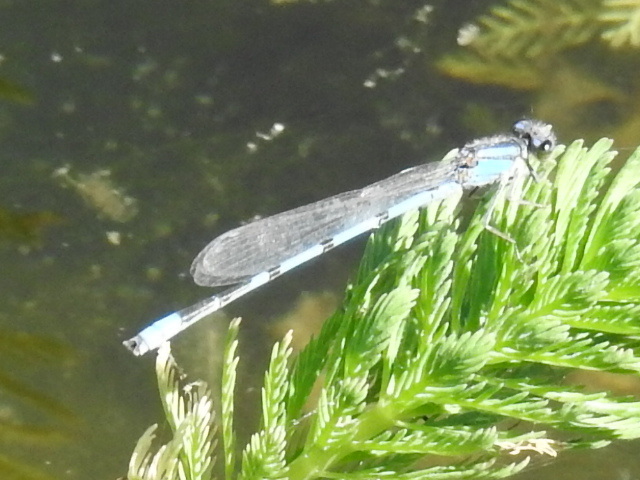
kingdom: Animalia
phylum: Arthropoda
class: Insecta
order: Odonata
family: Coenagrionidae
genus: Enallagma
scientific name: Enallagma civile
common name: Damselfly
